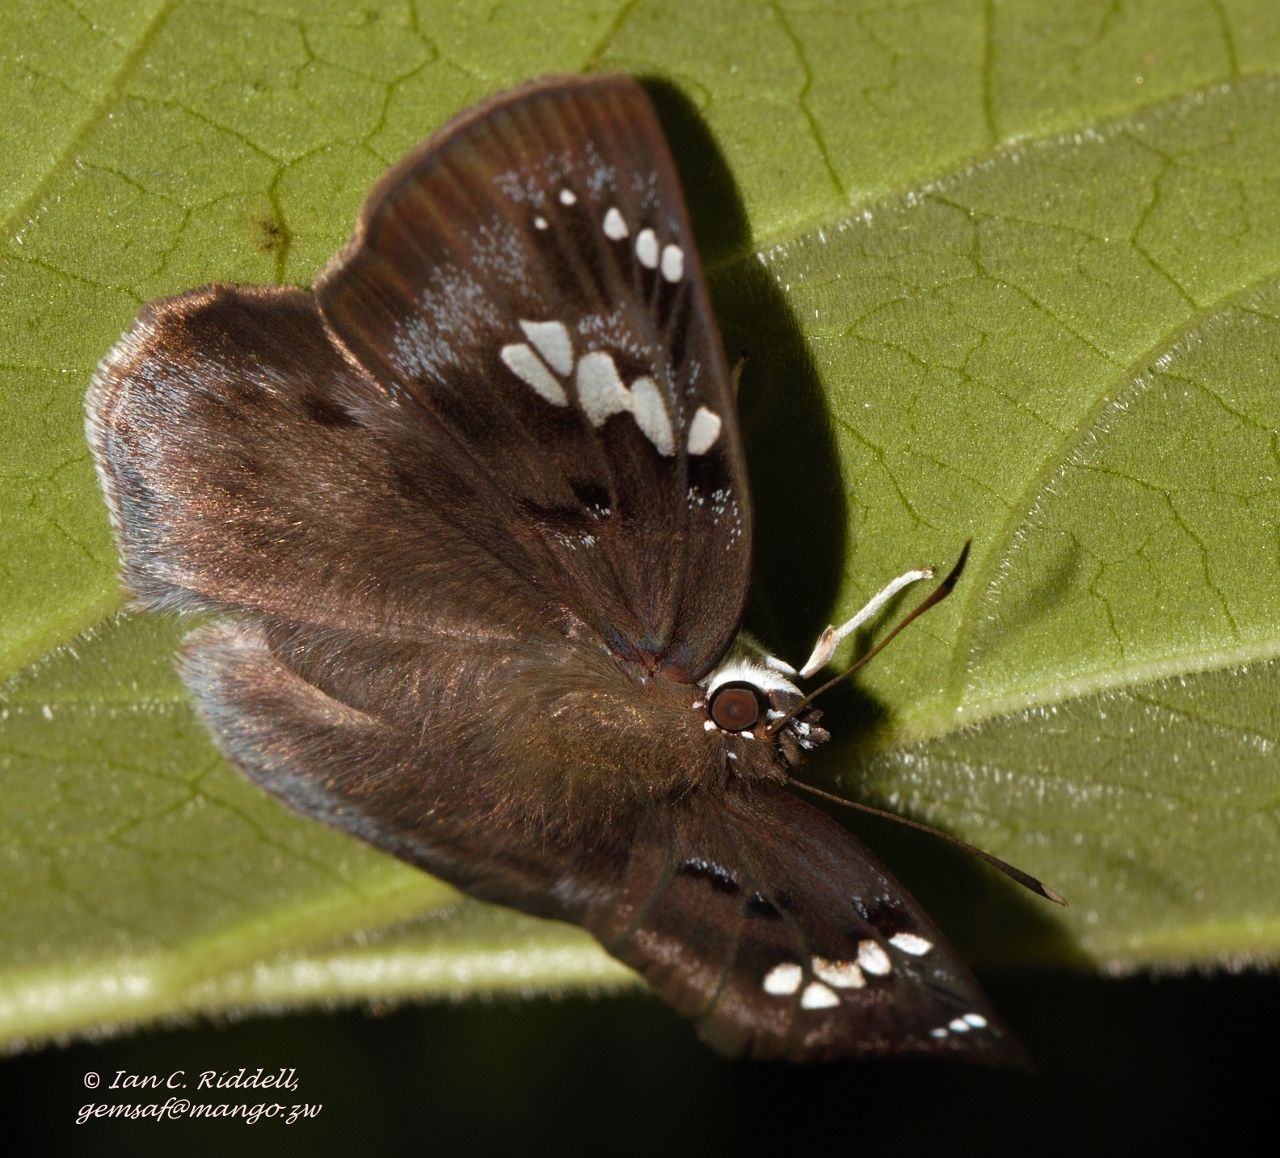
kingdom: Animalia
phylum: Arthropoda
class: Insecta
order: Lepidoptera
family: Hesperiidae
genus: Tagiades
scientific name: Tagiades flesus
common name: Clouded flat
